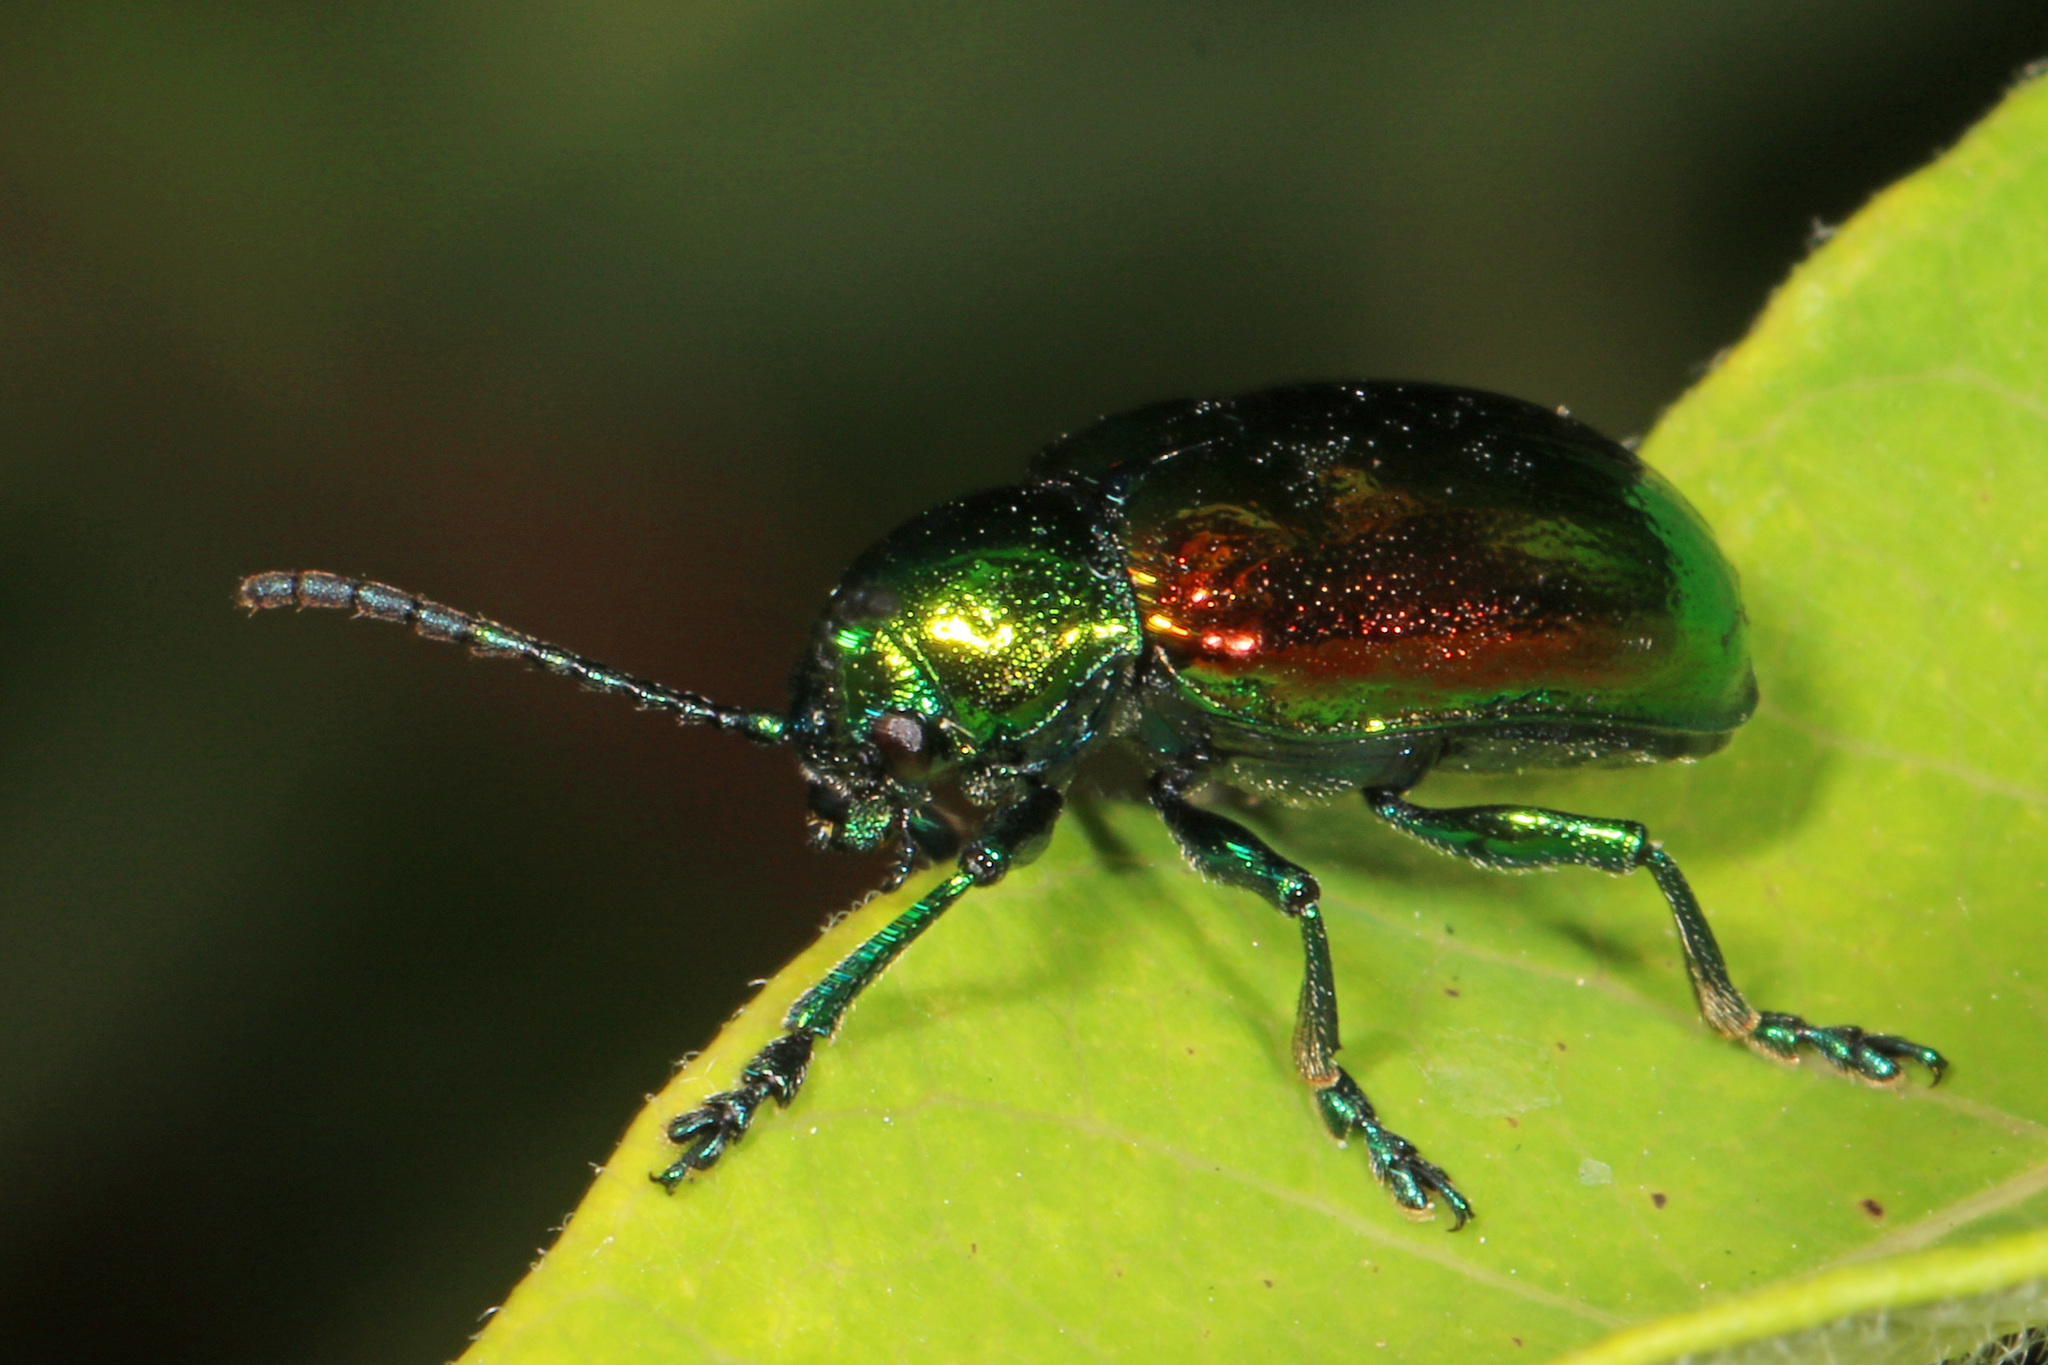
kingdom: Animalia
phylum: Arthropoda
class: Insecta
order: Coleoptera
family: Chrysomelidae
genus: Chrysochus
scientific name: Chrysochus auratus
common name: Dogbane leaf beetle
